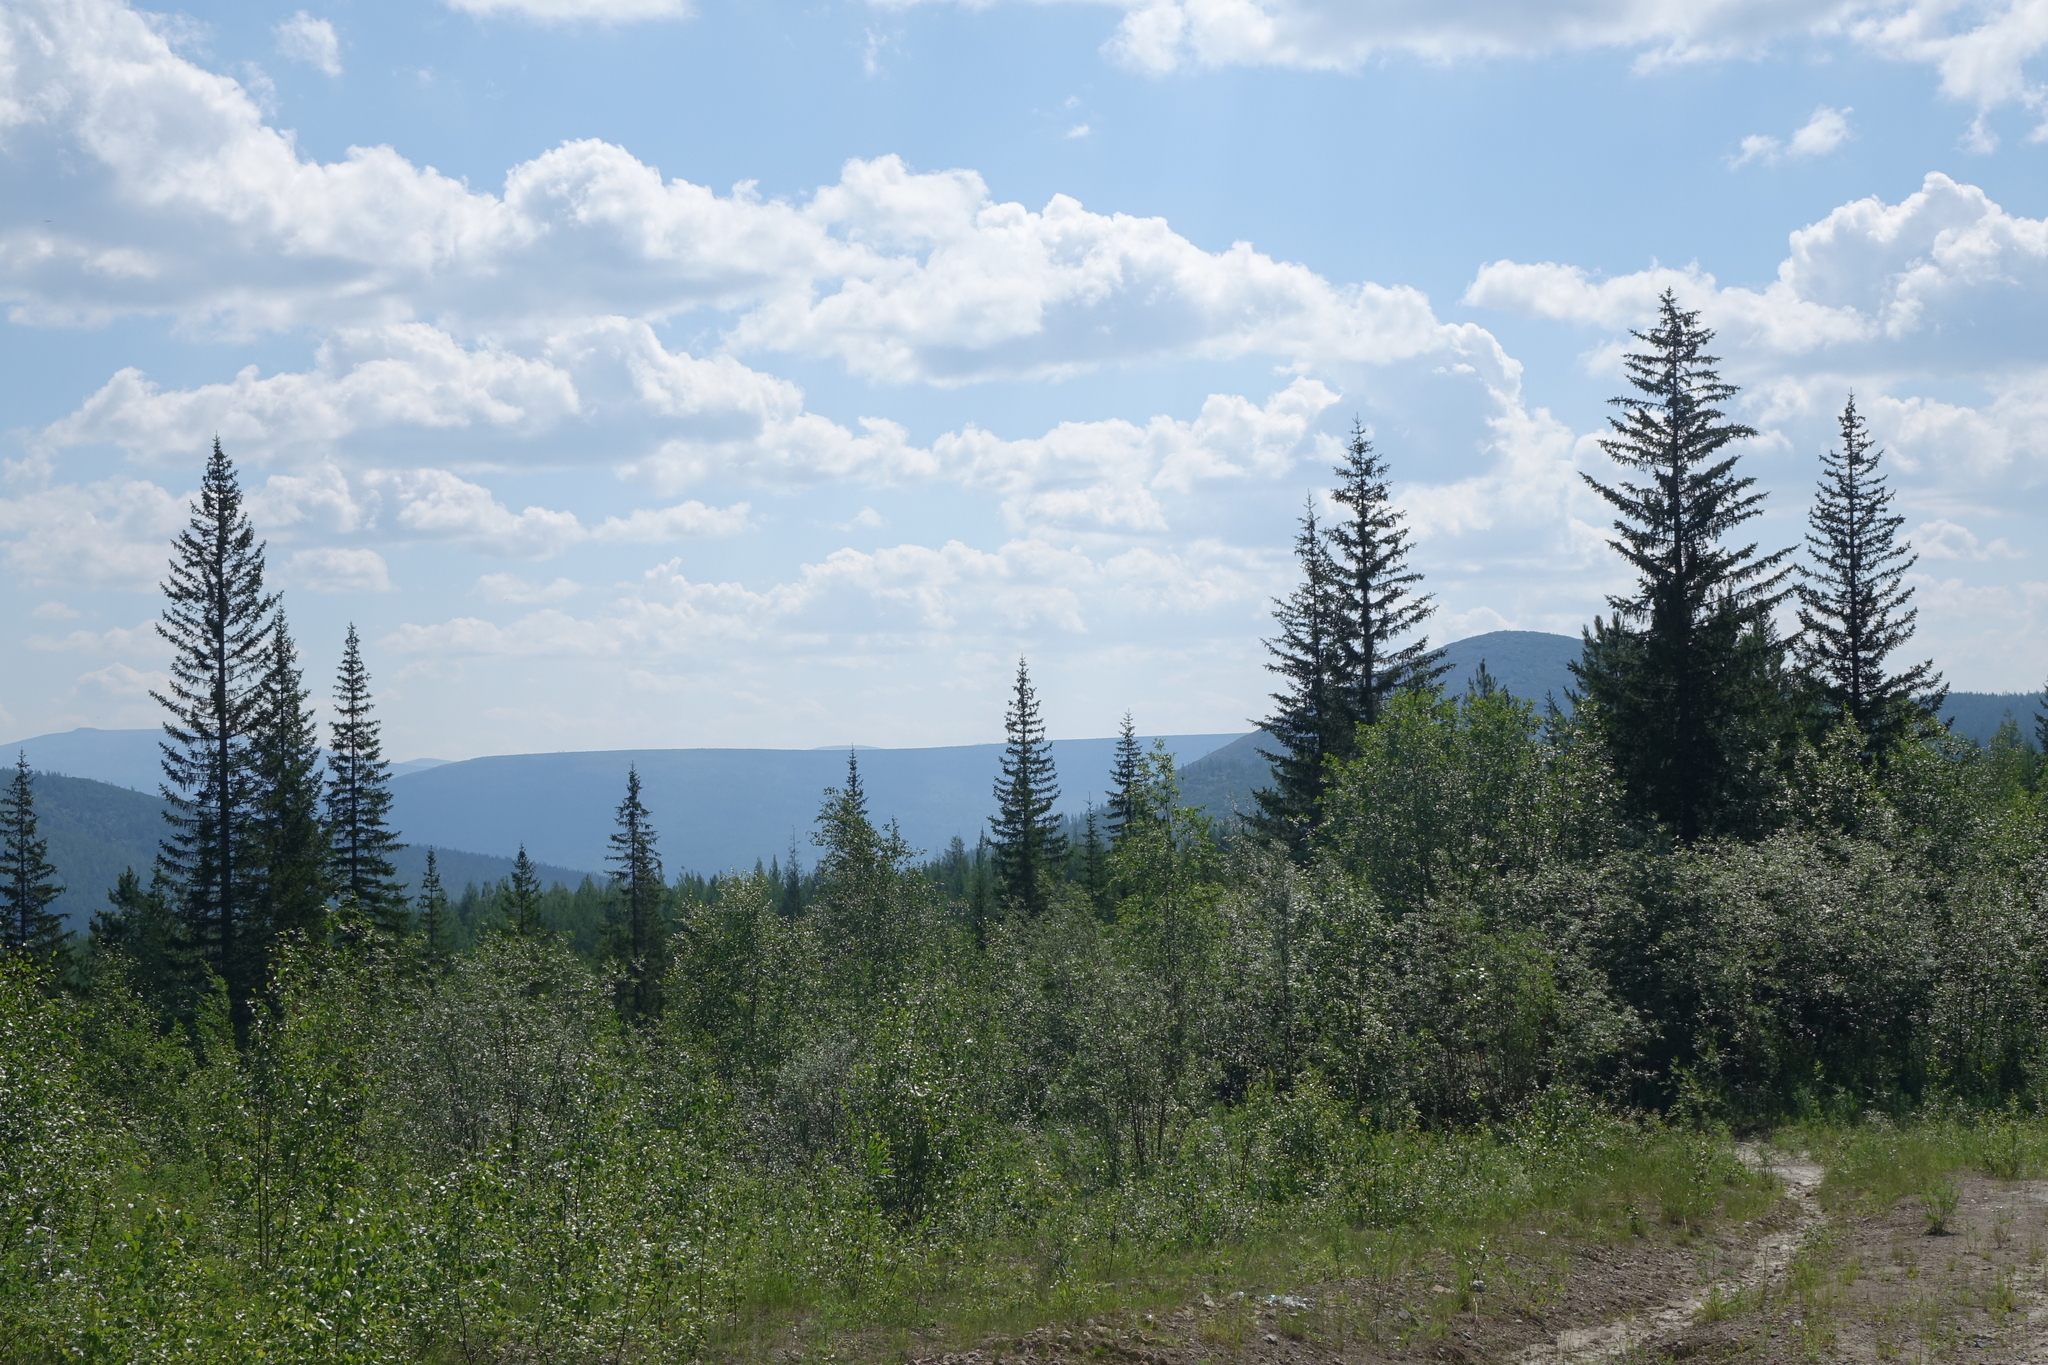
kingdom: Plantae
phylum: Tracheophyta
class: Pinopsida
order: Pinales
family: Pinaceae
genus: Picea
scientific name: Picea obovata
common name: Siberian spruce
